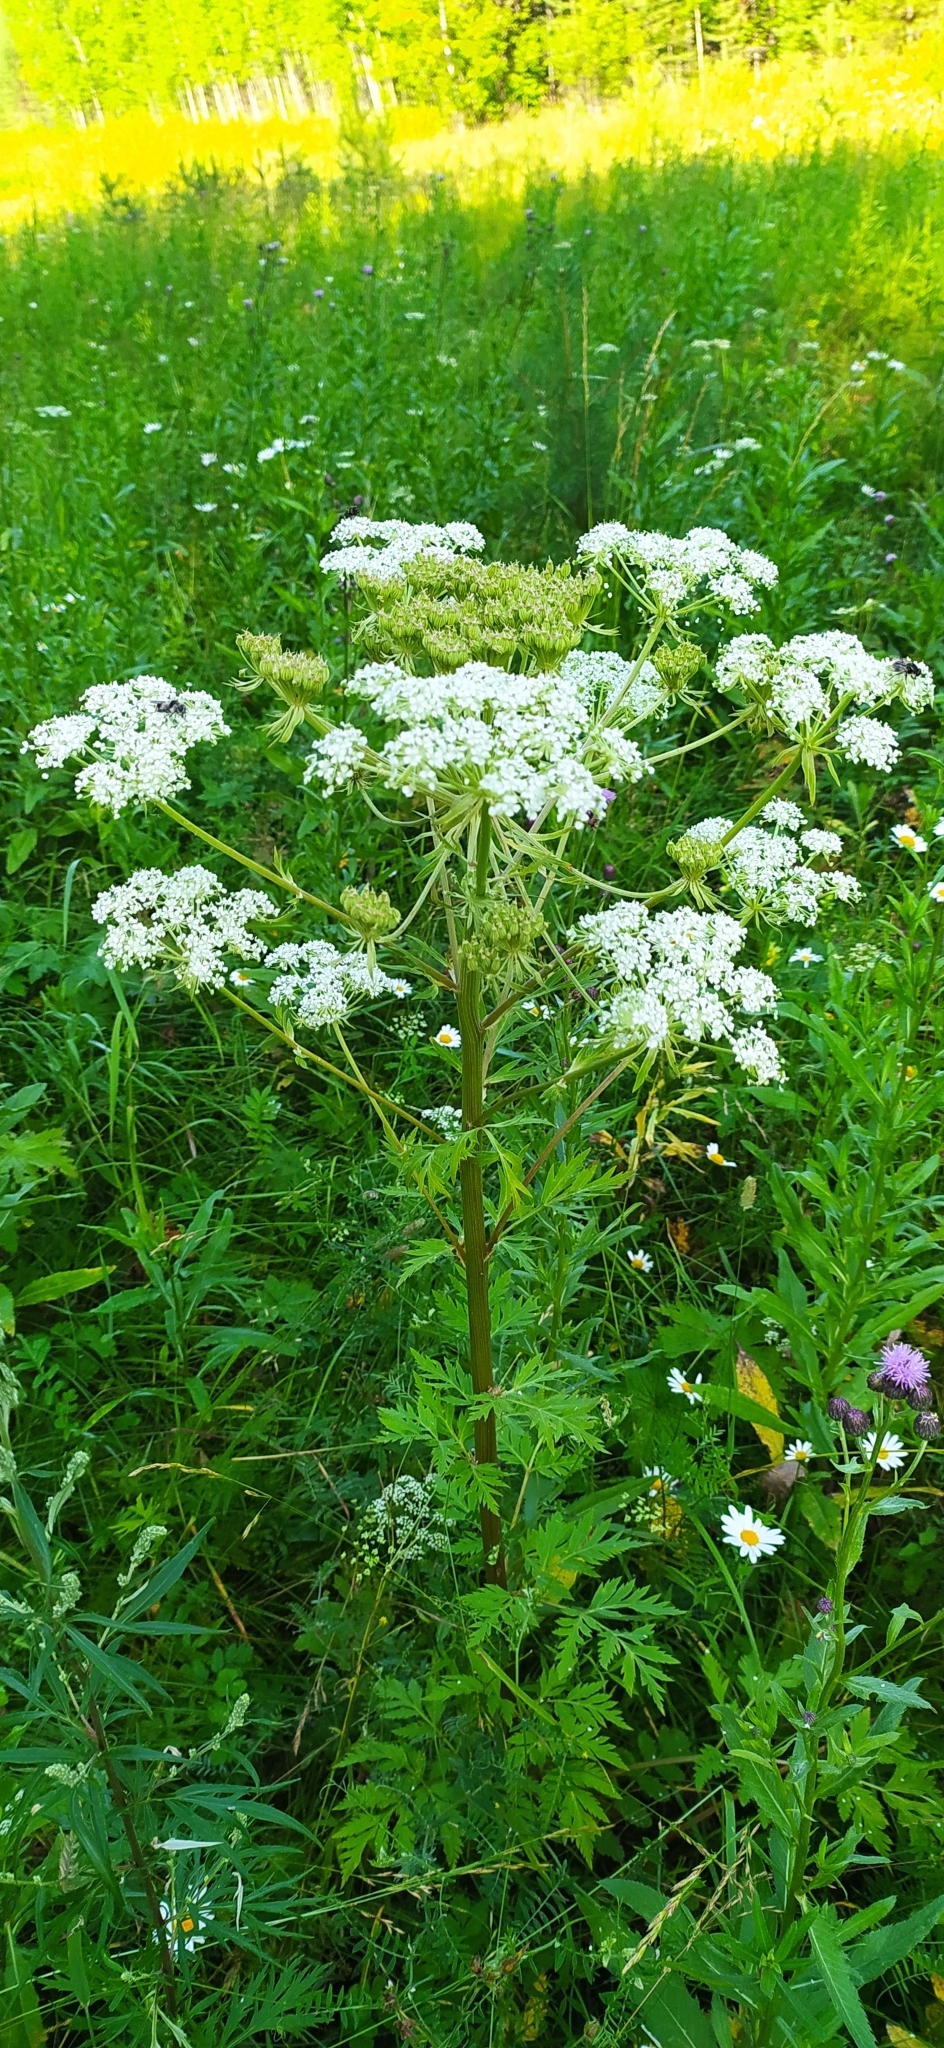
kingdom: Plantae
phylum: Tracheophyta
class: Magnoliopsida
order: Apiales
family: Apiaceae
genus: Pleurospermum
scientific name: Pleurospermum uralense
